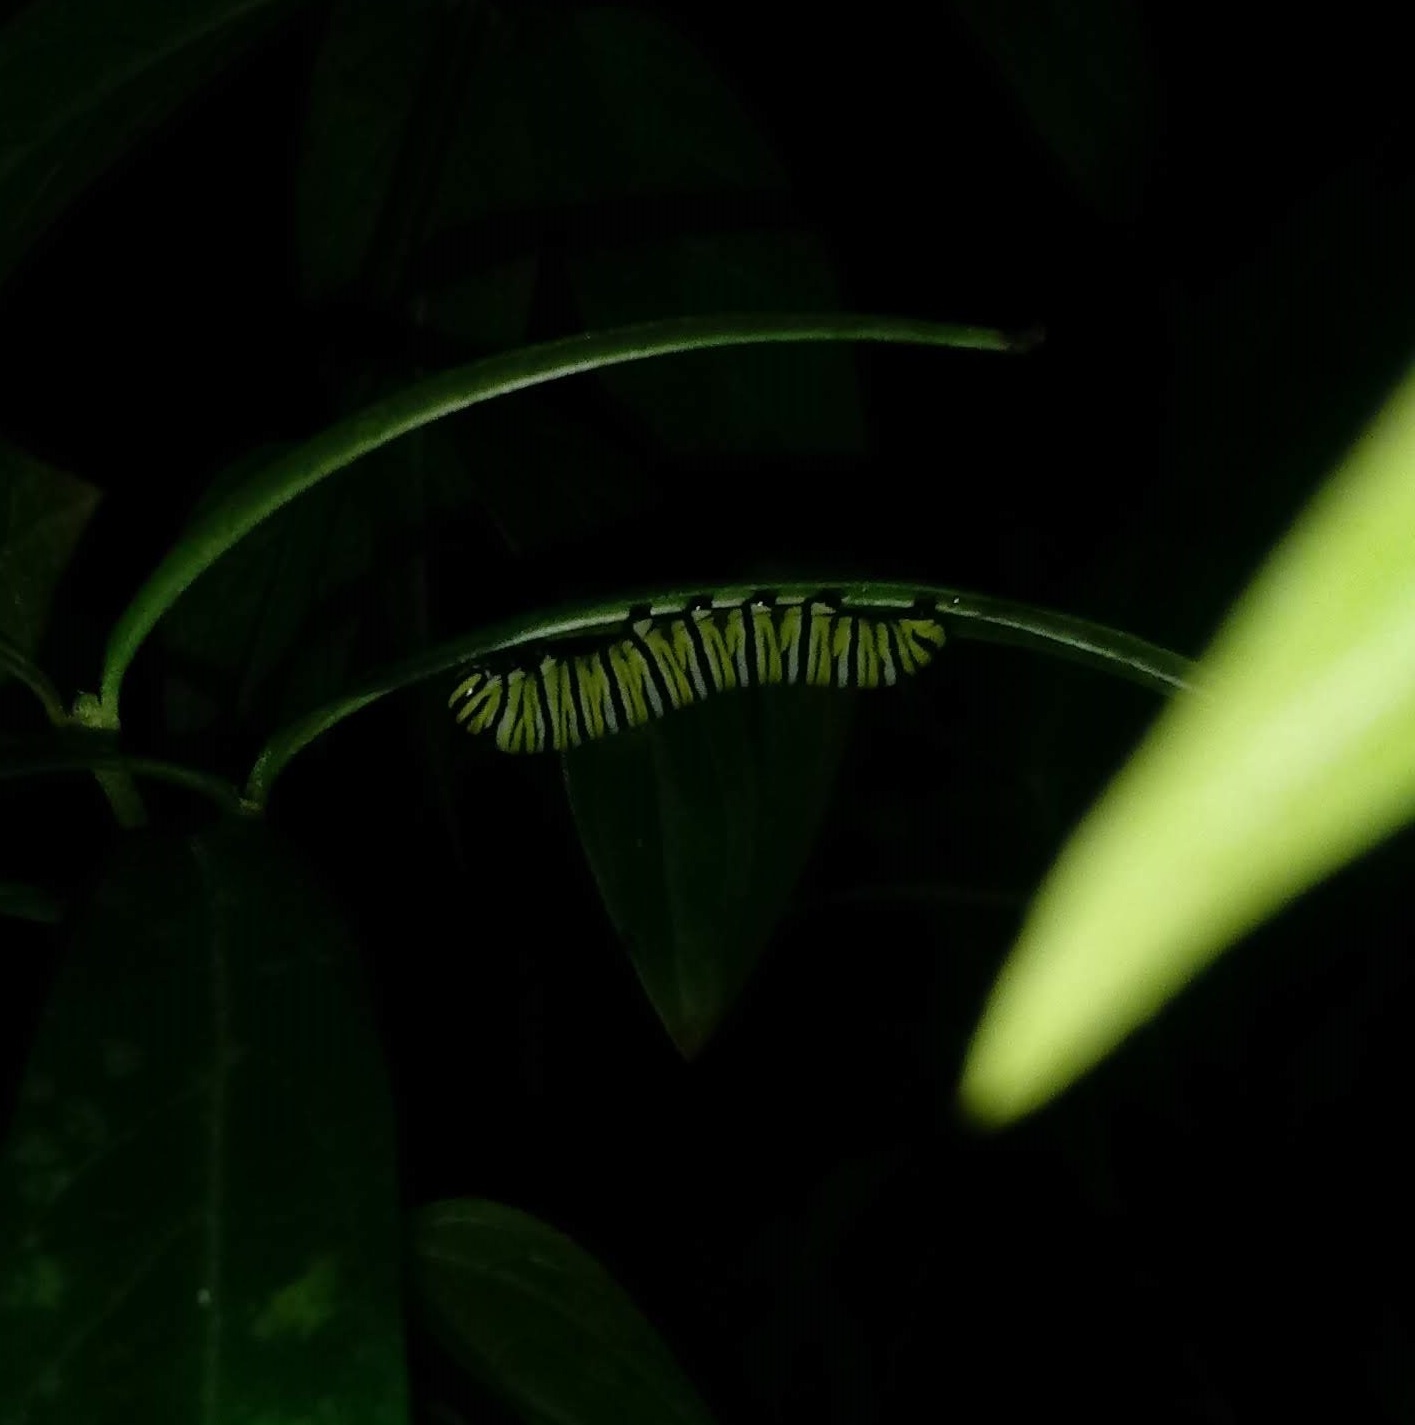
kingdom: Animalia
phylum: Arthropoda
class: Insecta
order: Lepidoptera
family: Nymphalidae
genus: Danaus
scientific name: Danaus plexippus
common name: Monarch
